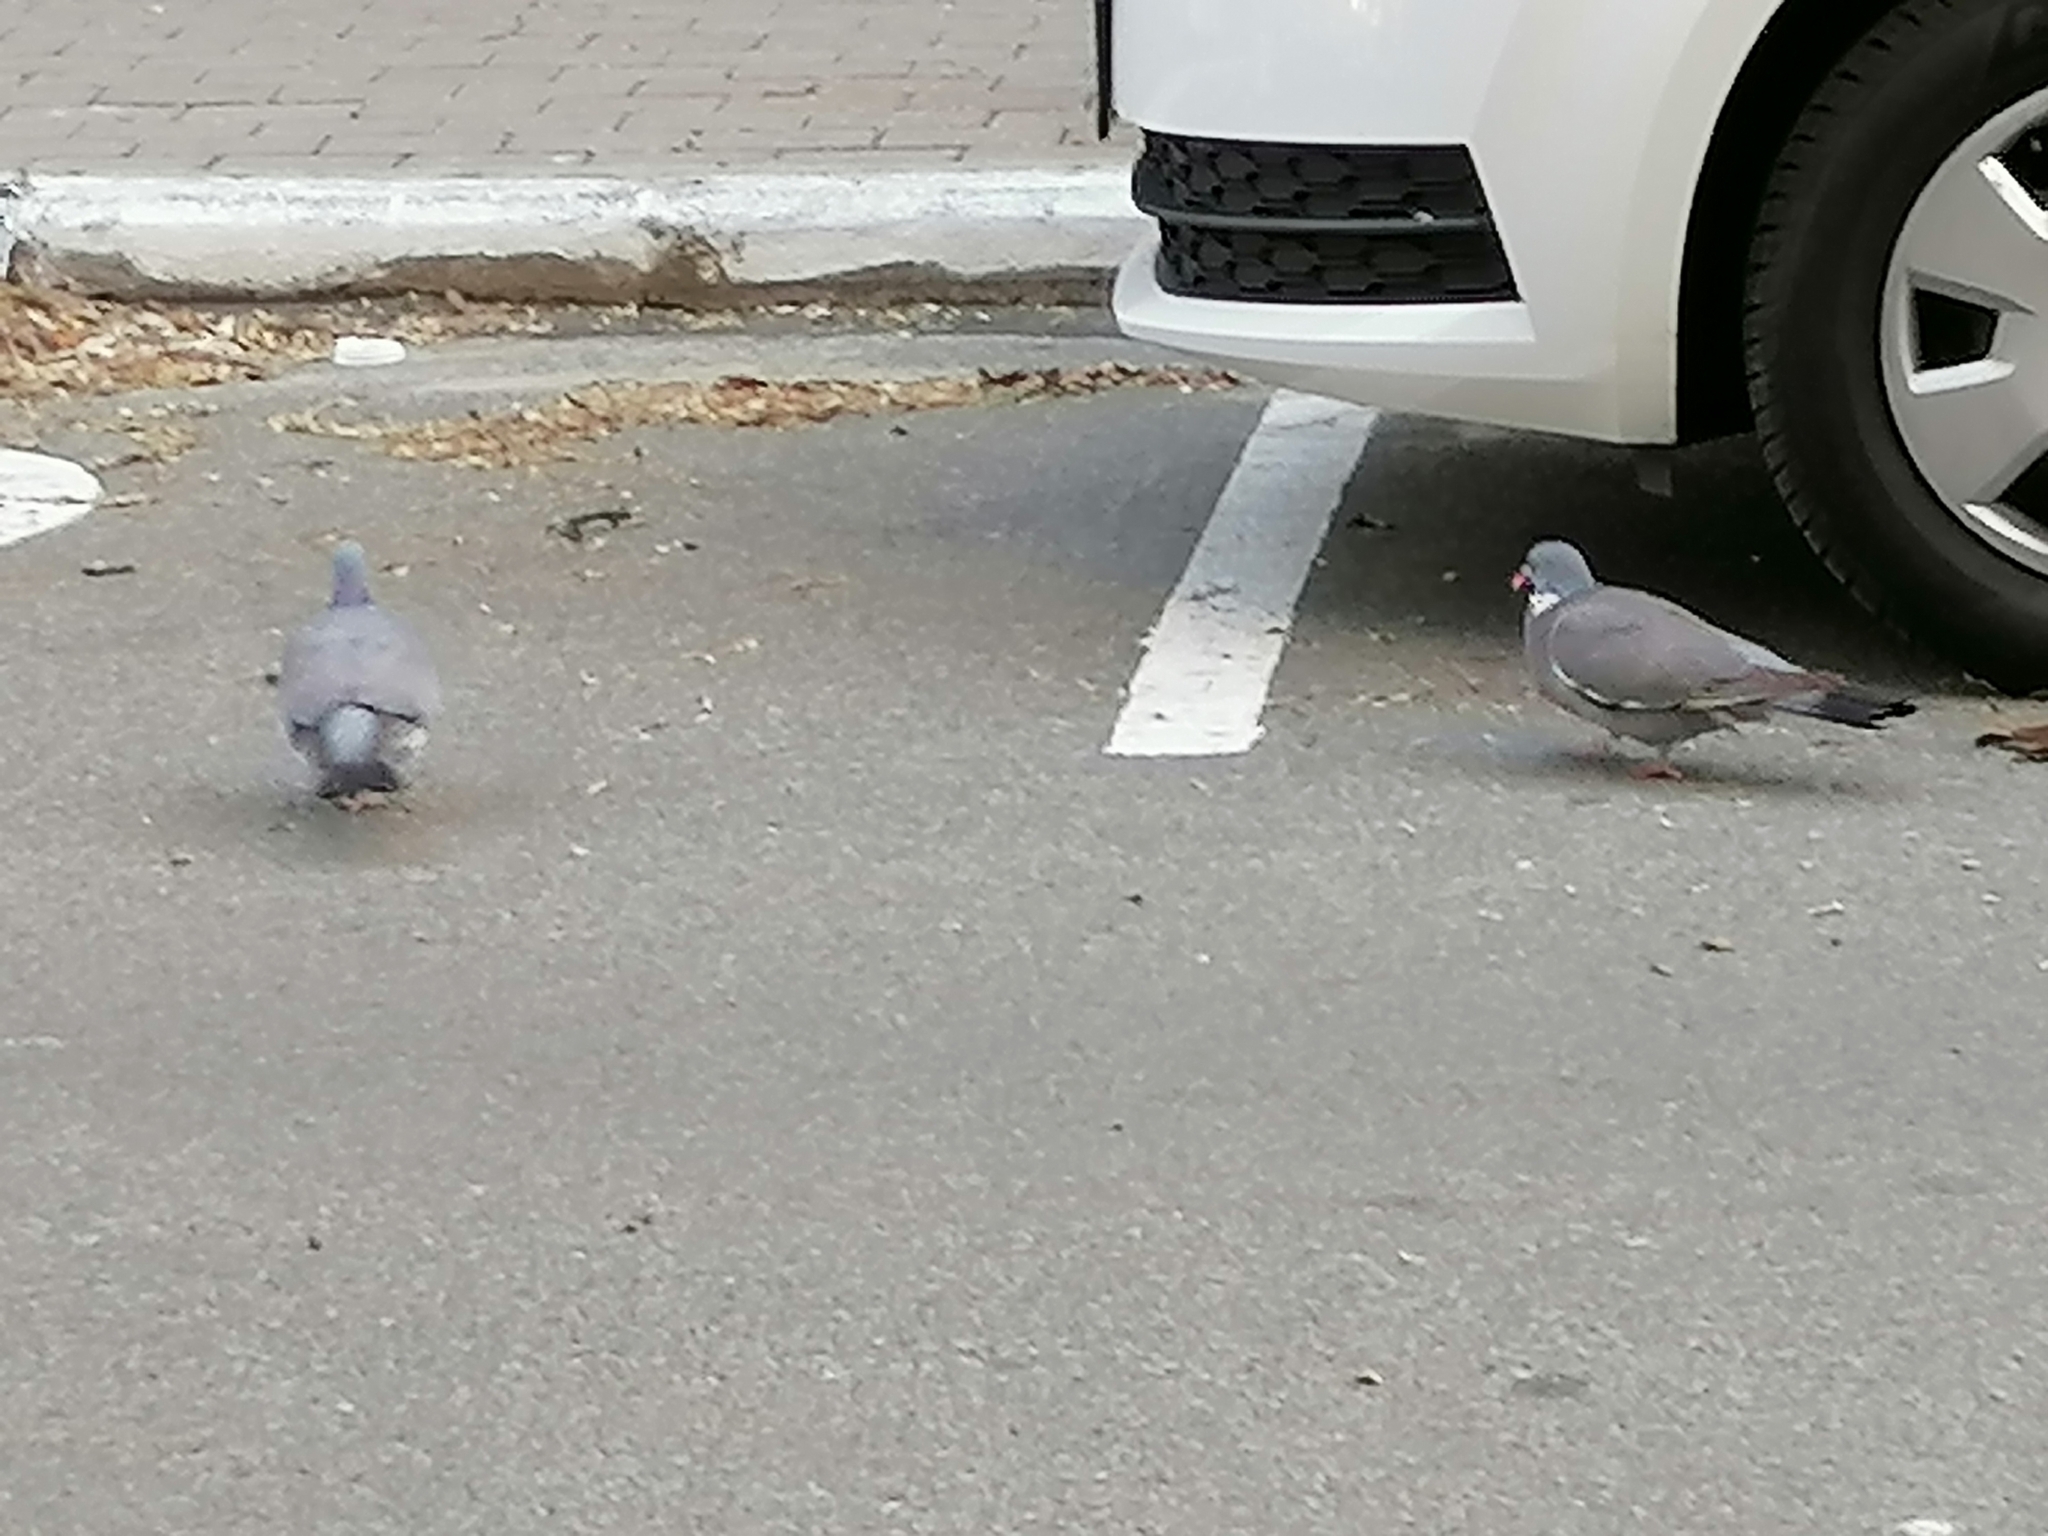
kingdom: Animalia
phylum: Chordata
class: Aves
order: Columbiformes
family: Columbidae
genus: Columba
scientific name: Columba palumbus
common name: Common wood pigeon
